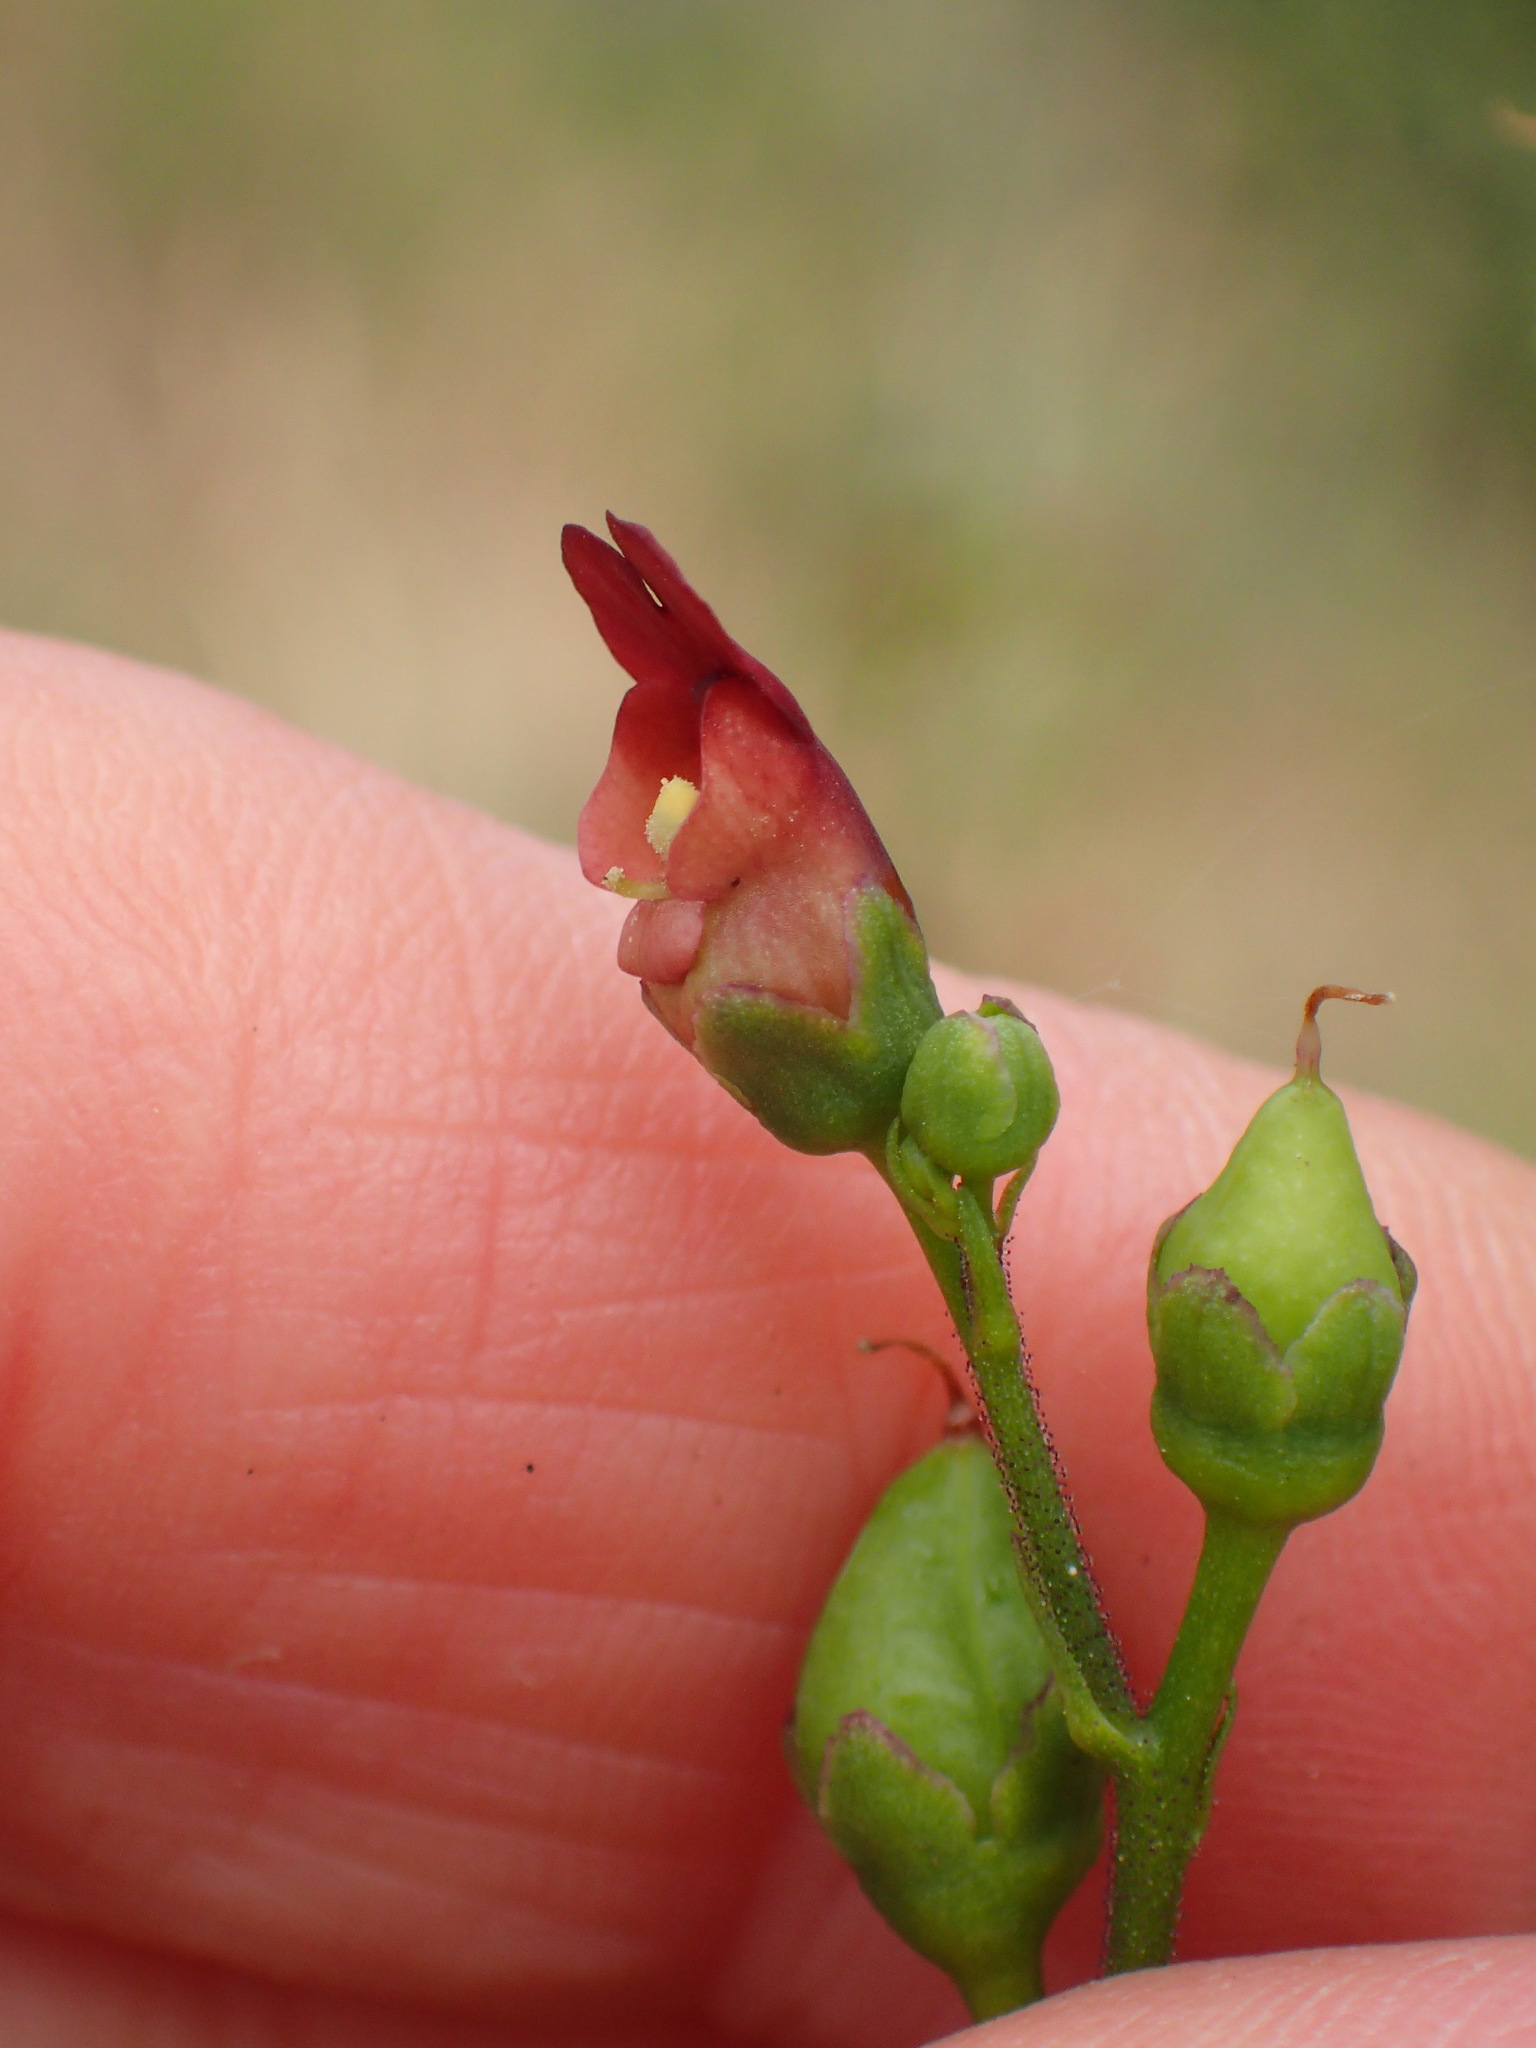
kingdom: Plantae
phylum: Tracheophyta
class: Magnoliopsida
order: Lamiales
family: Scrophulariaceae
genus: Scrophularia
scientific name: Scrophularia californica
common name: California figwort
